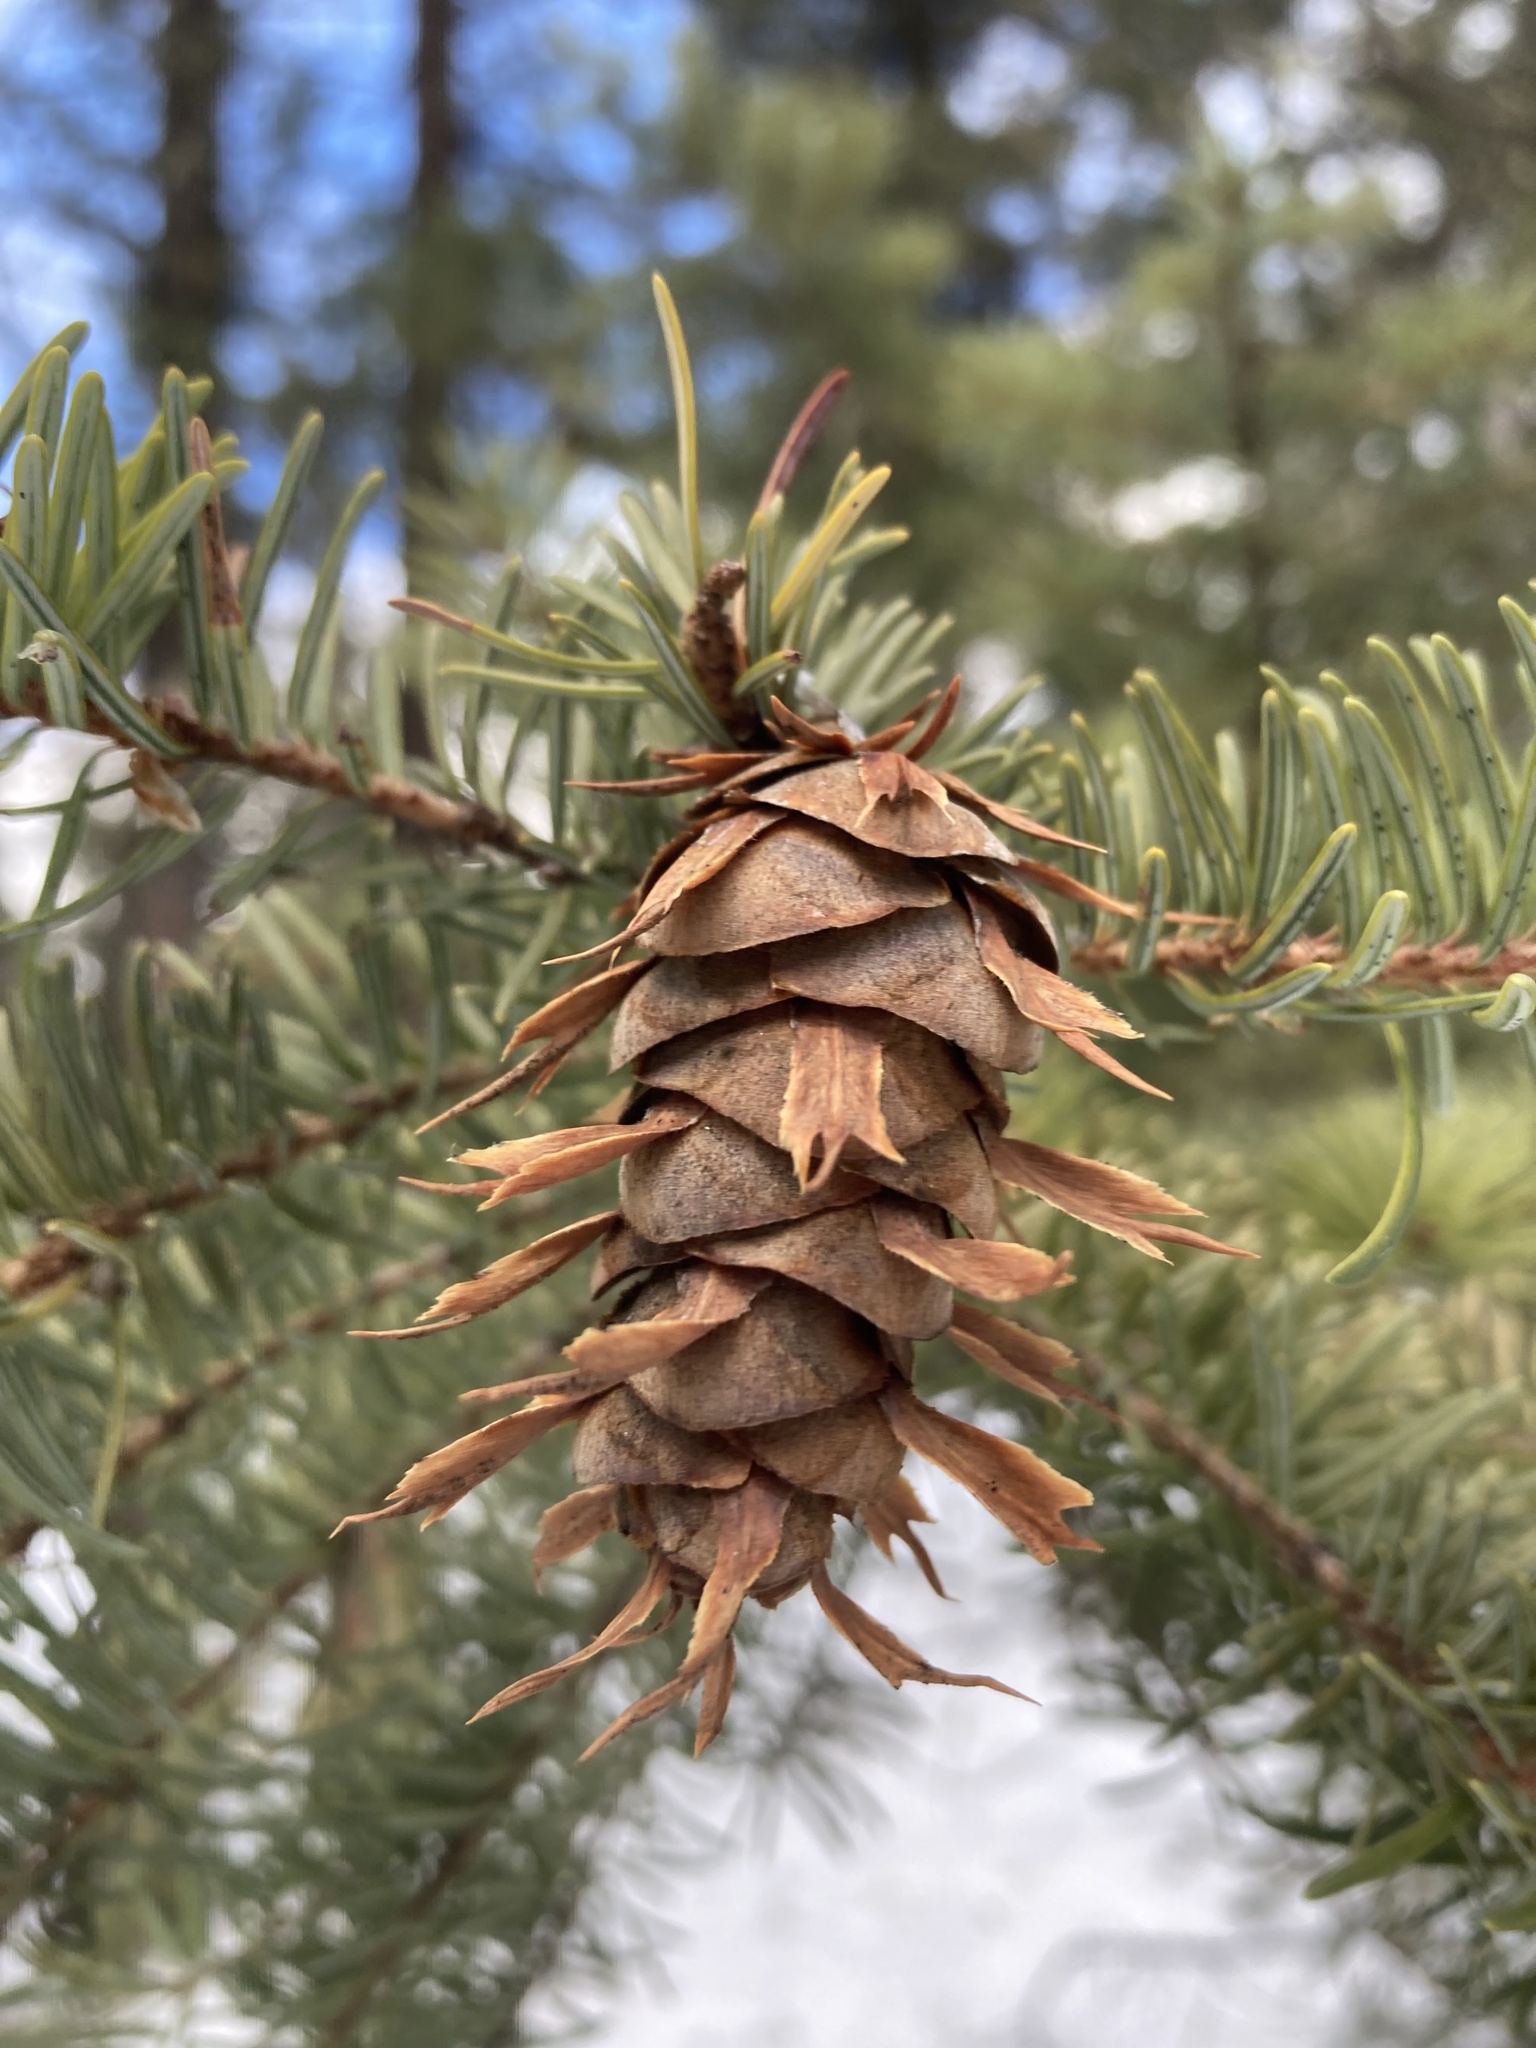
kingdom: Plantae
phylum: Tracheophyta
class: Pinopsida
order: Pinales
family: Pinaceae
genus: Pseudotsuga
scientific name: Pseudotsuga menziesii
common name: Douglas fir
